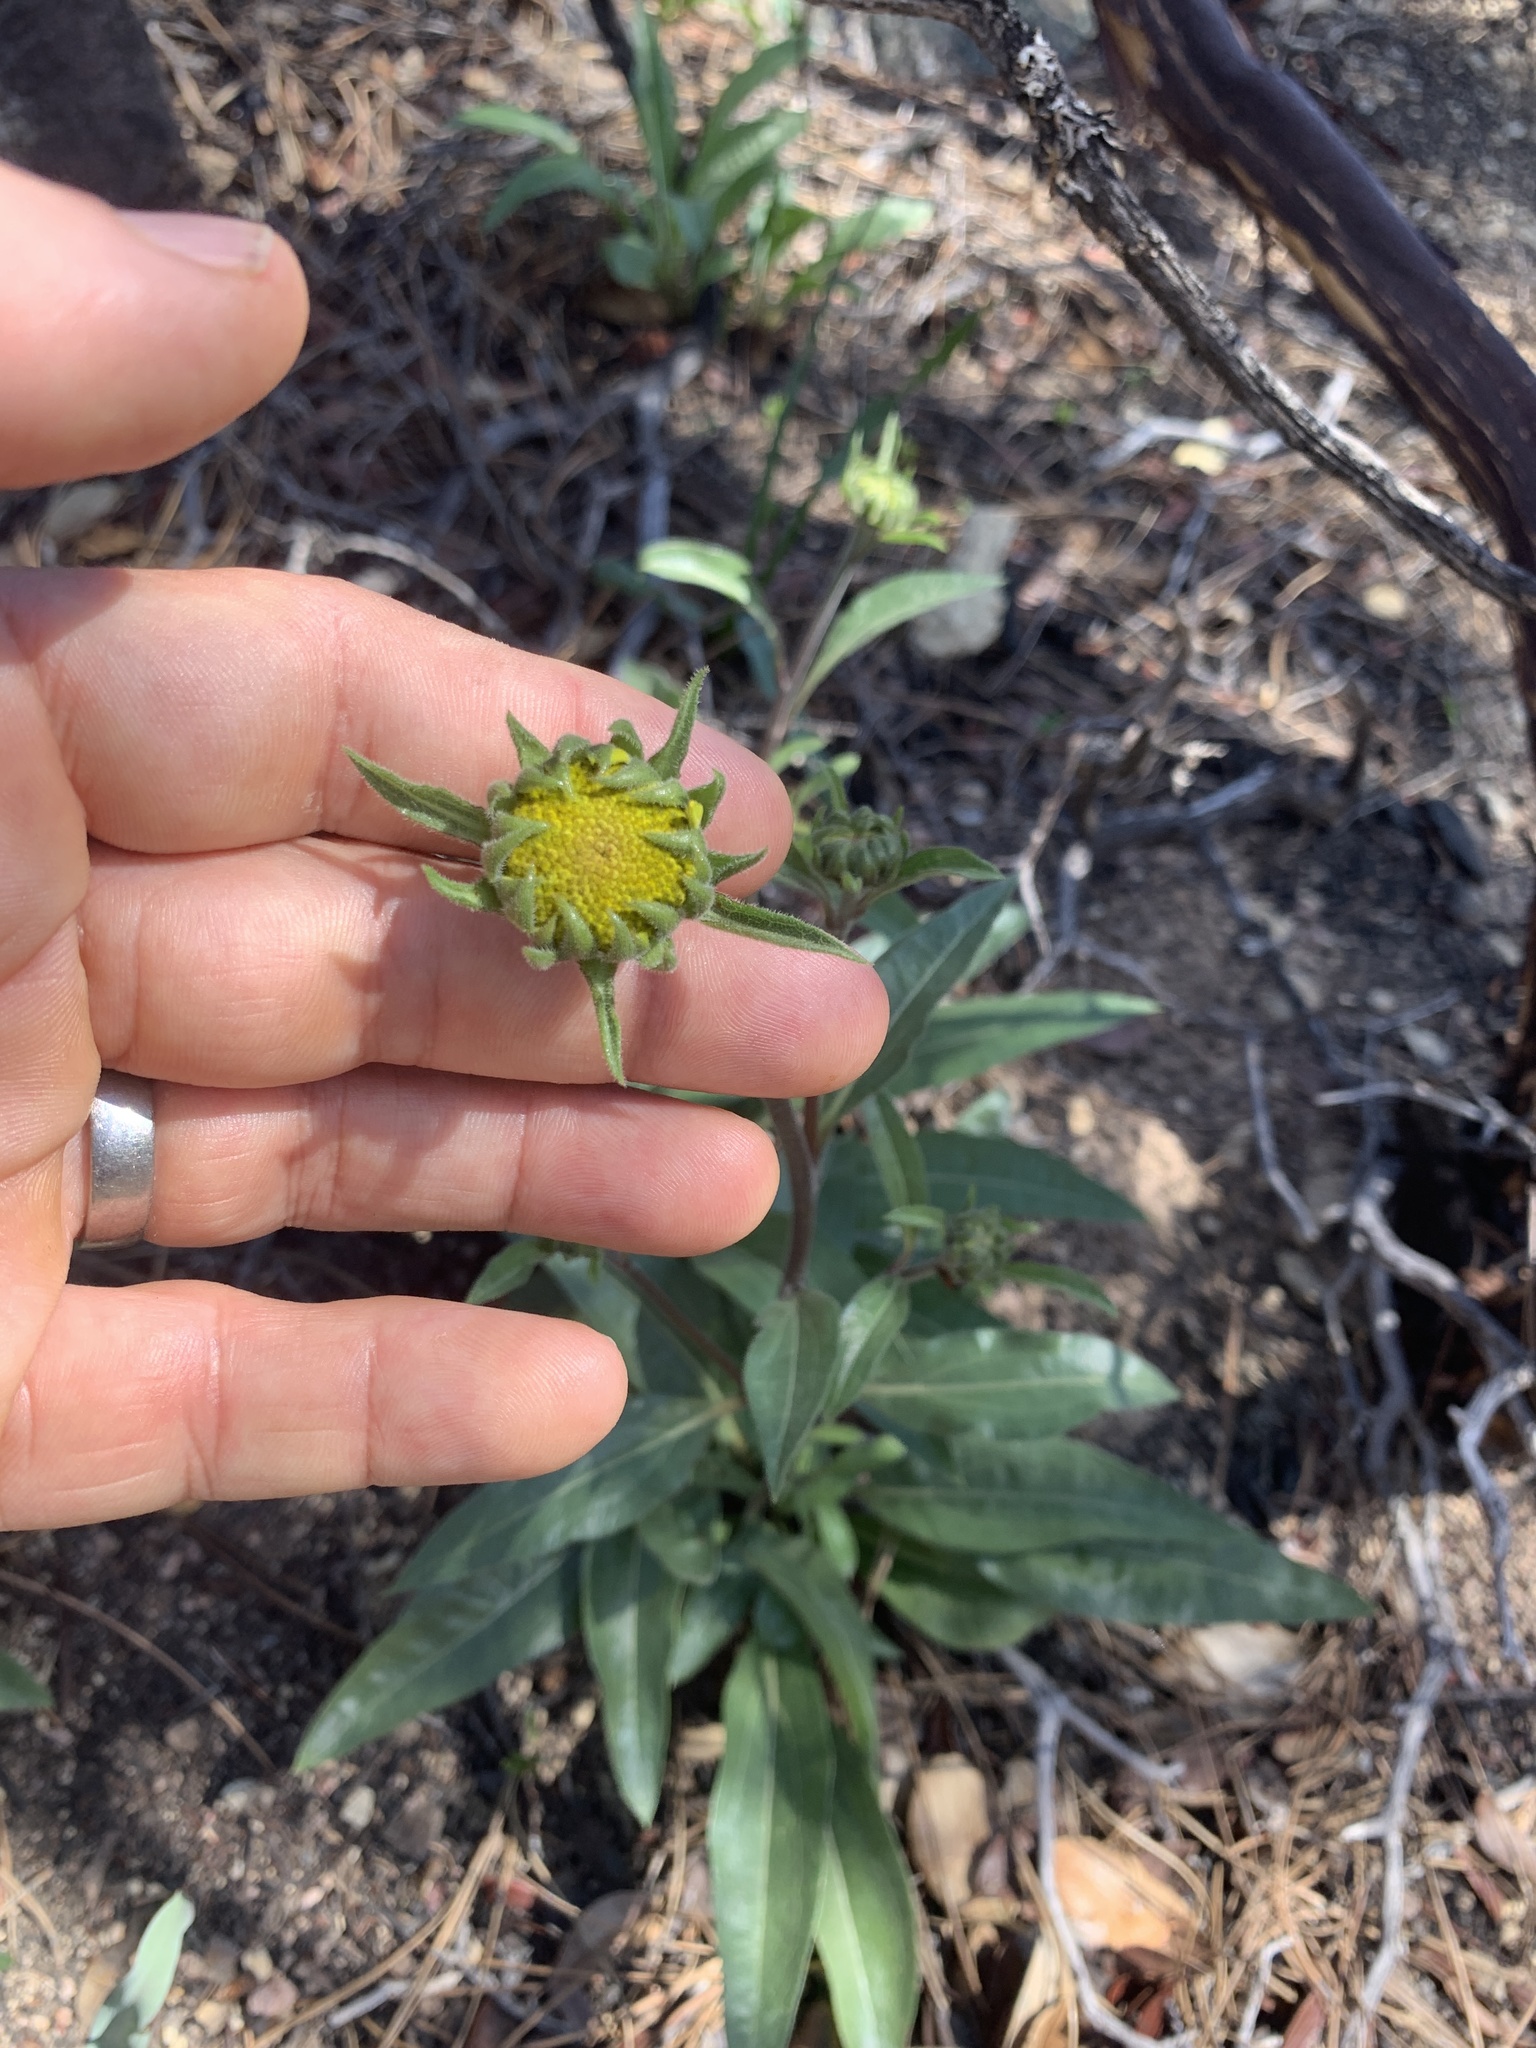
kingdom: Plantae
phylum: Tracheophyta
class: Magnoliopsida
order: Asterales
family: Asteraceae
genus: Helianthella
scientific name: Helianthella californica
